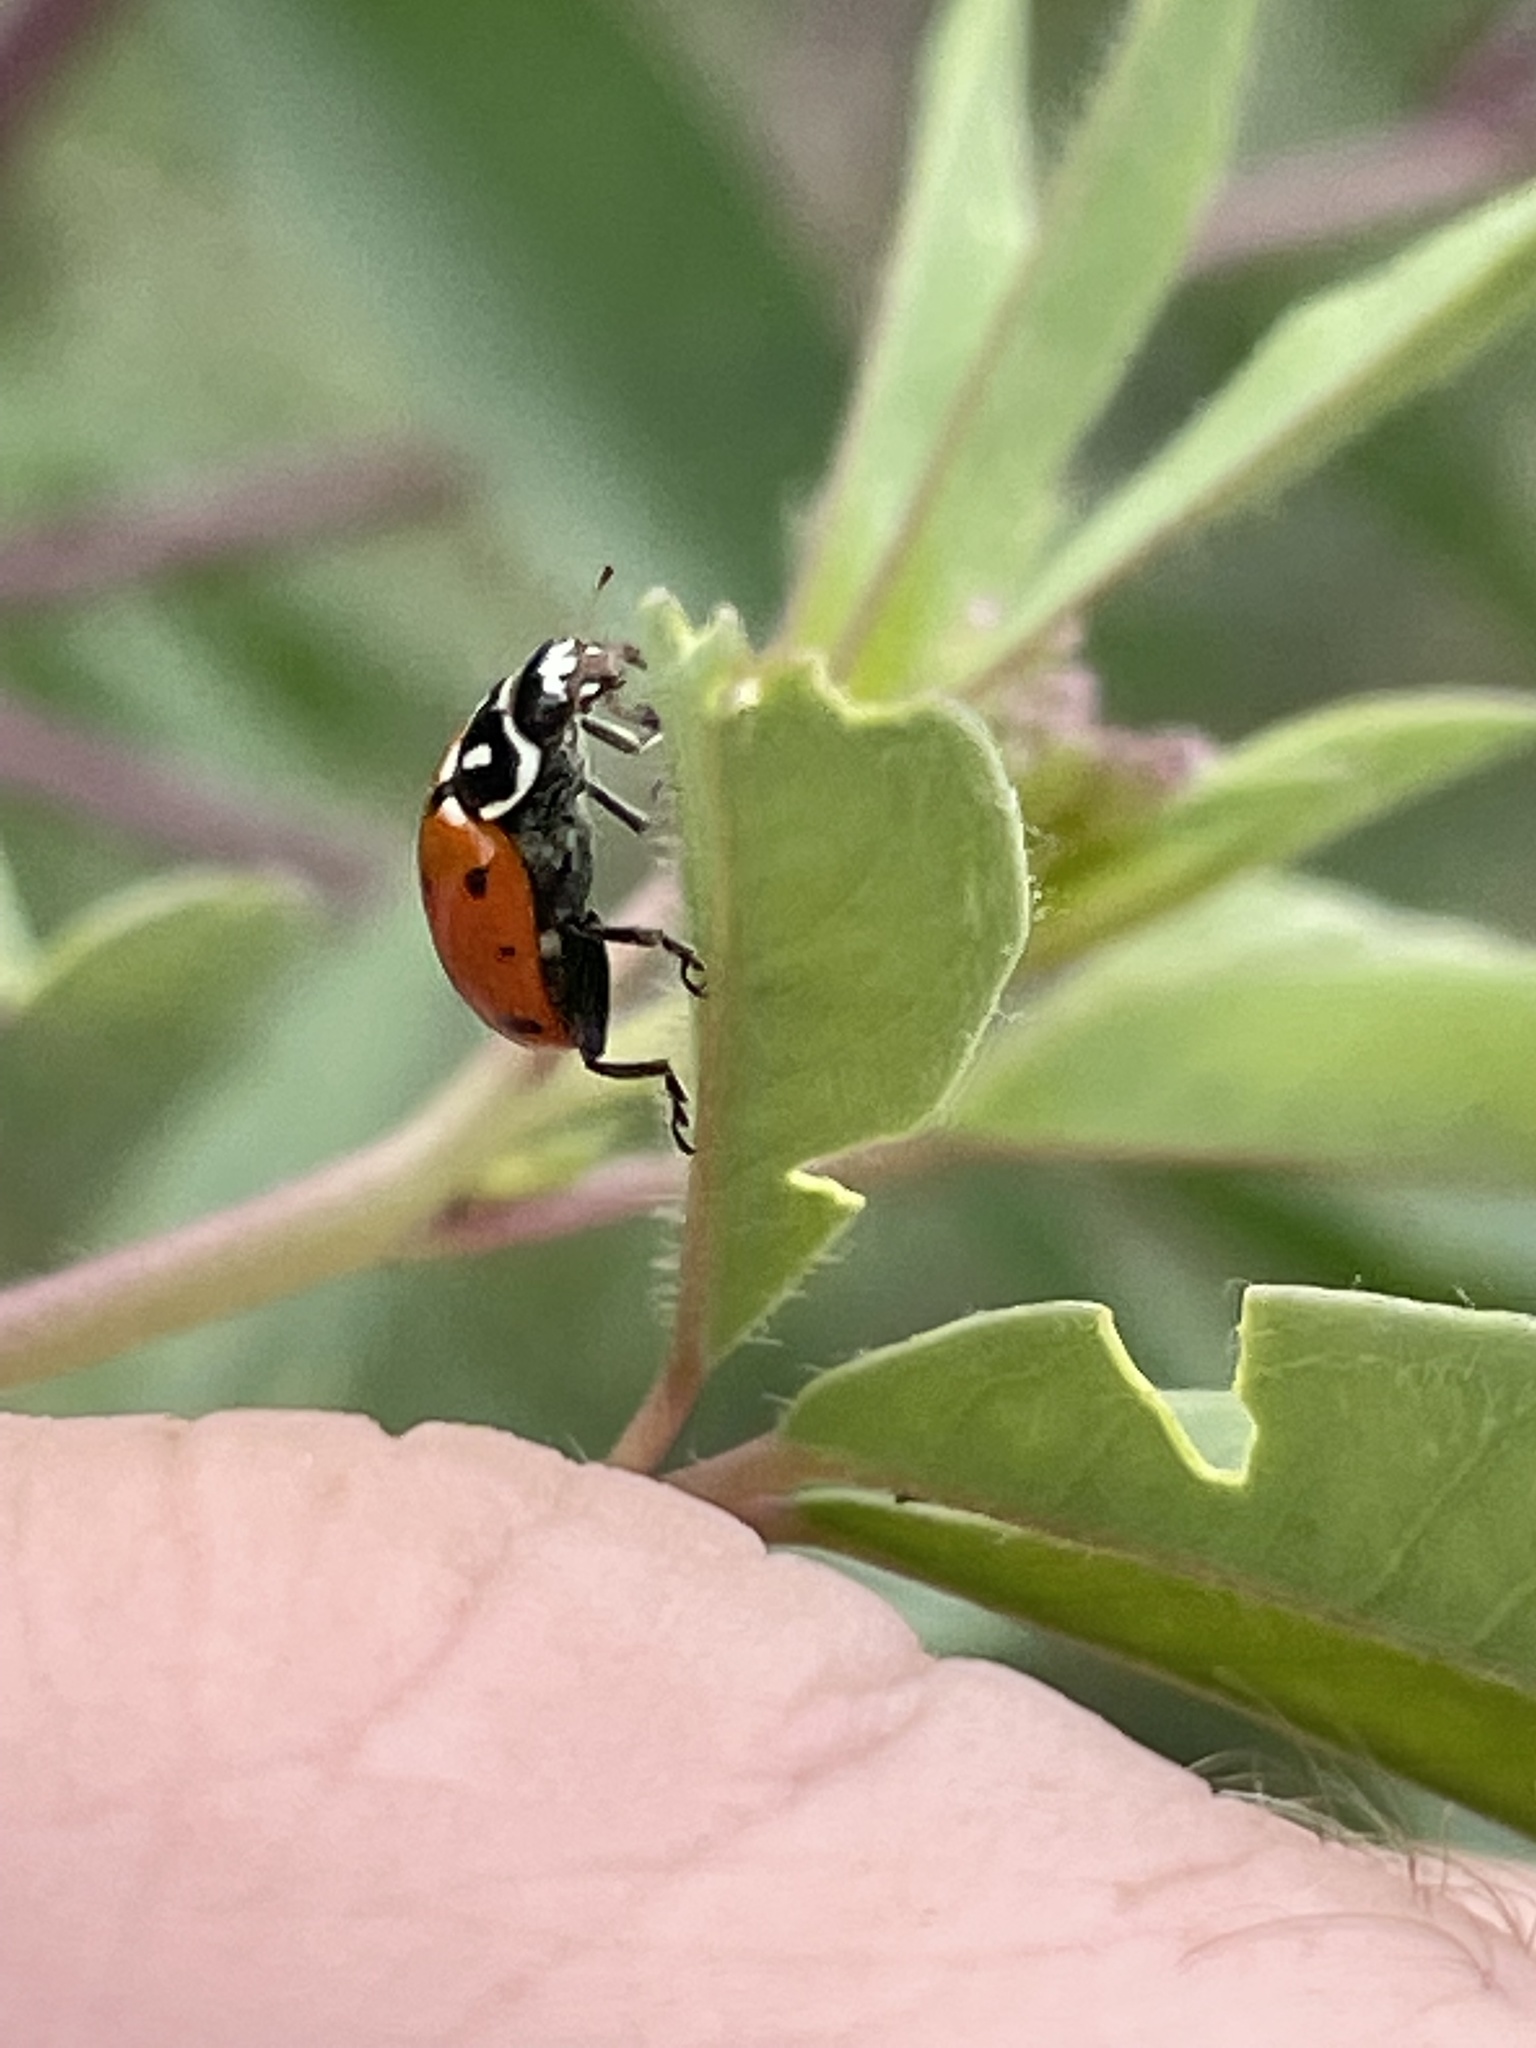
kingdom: Animalia
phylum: Arthropoda
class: Insecta
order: Coleoptera
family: Coccinellidae
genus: Hippodamia
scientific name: Hippodamia convergens
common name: Convergent lady beetle
